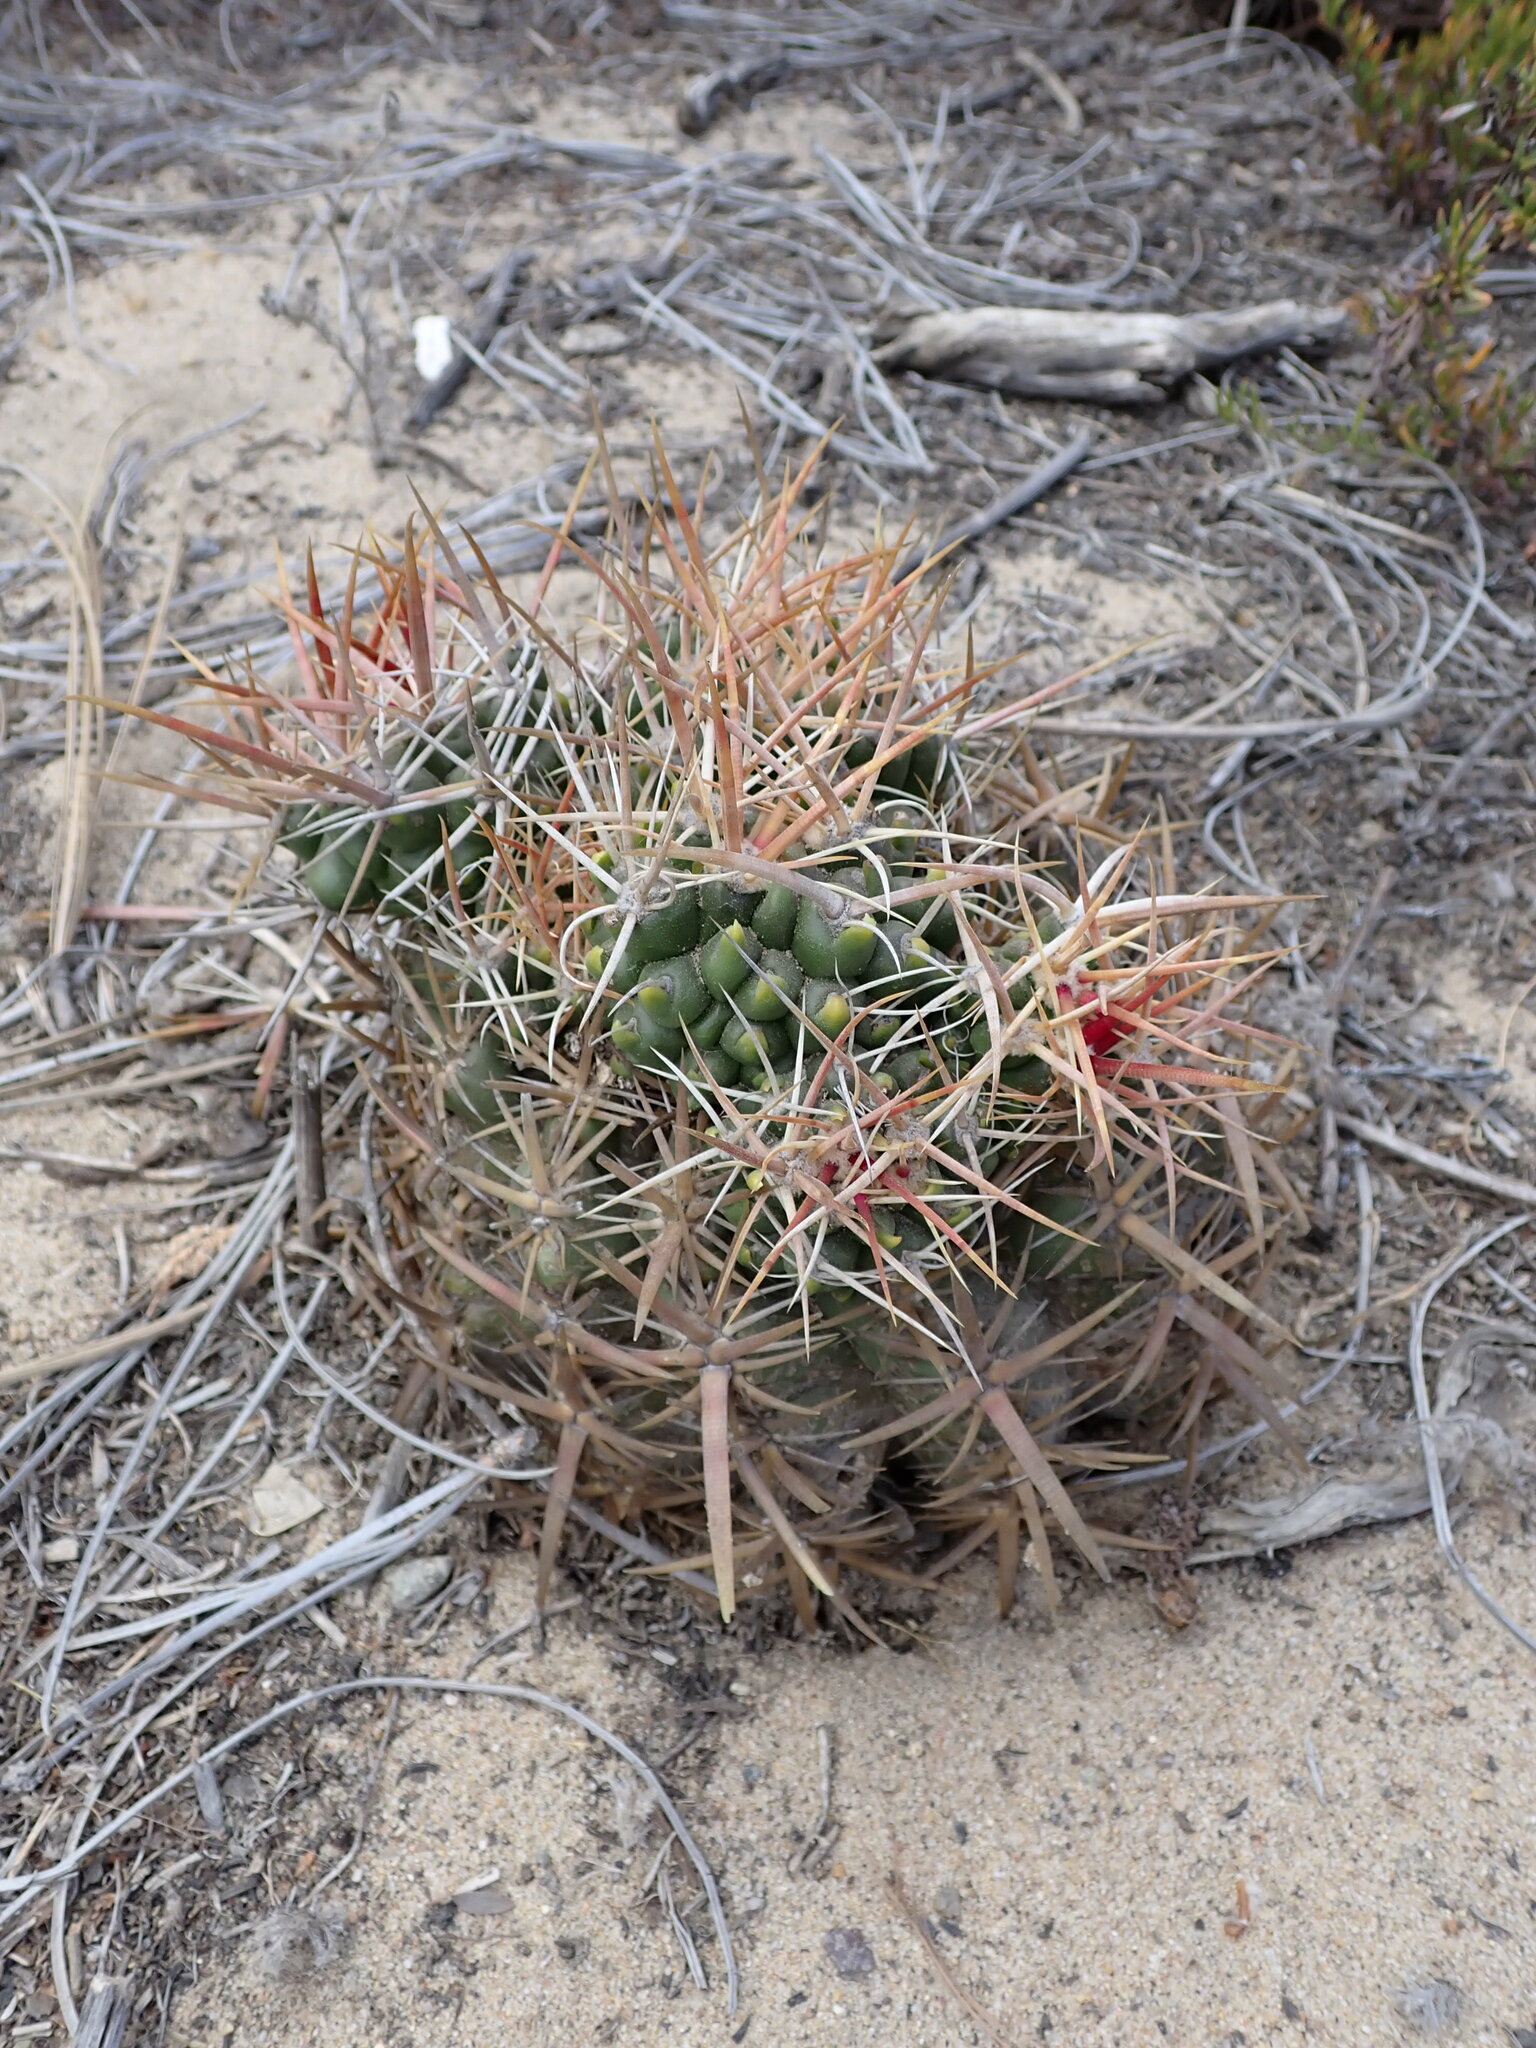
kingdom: Plantae
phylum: Tracheophyta
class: Magnoliopsida
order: Caryophyllales
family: Cactaceae
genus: Ferocactus
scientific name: Ferocactus viridescens
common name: San diego barrel cactus
